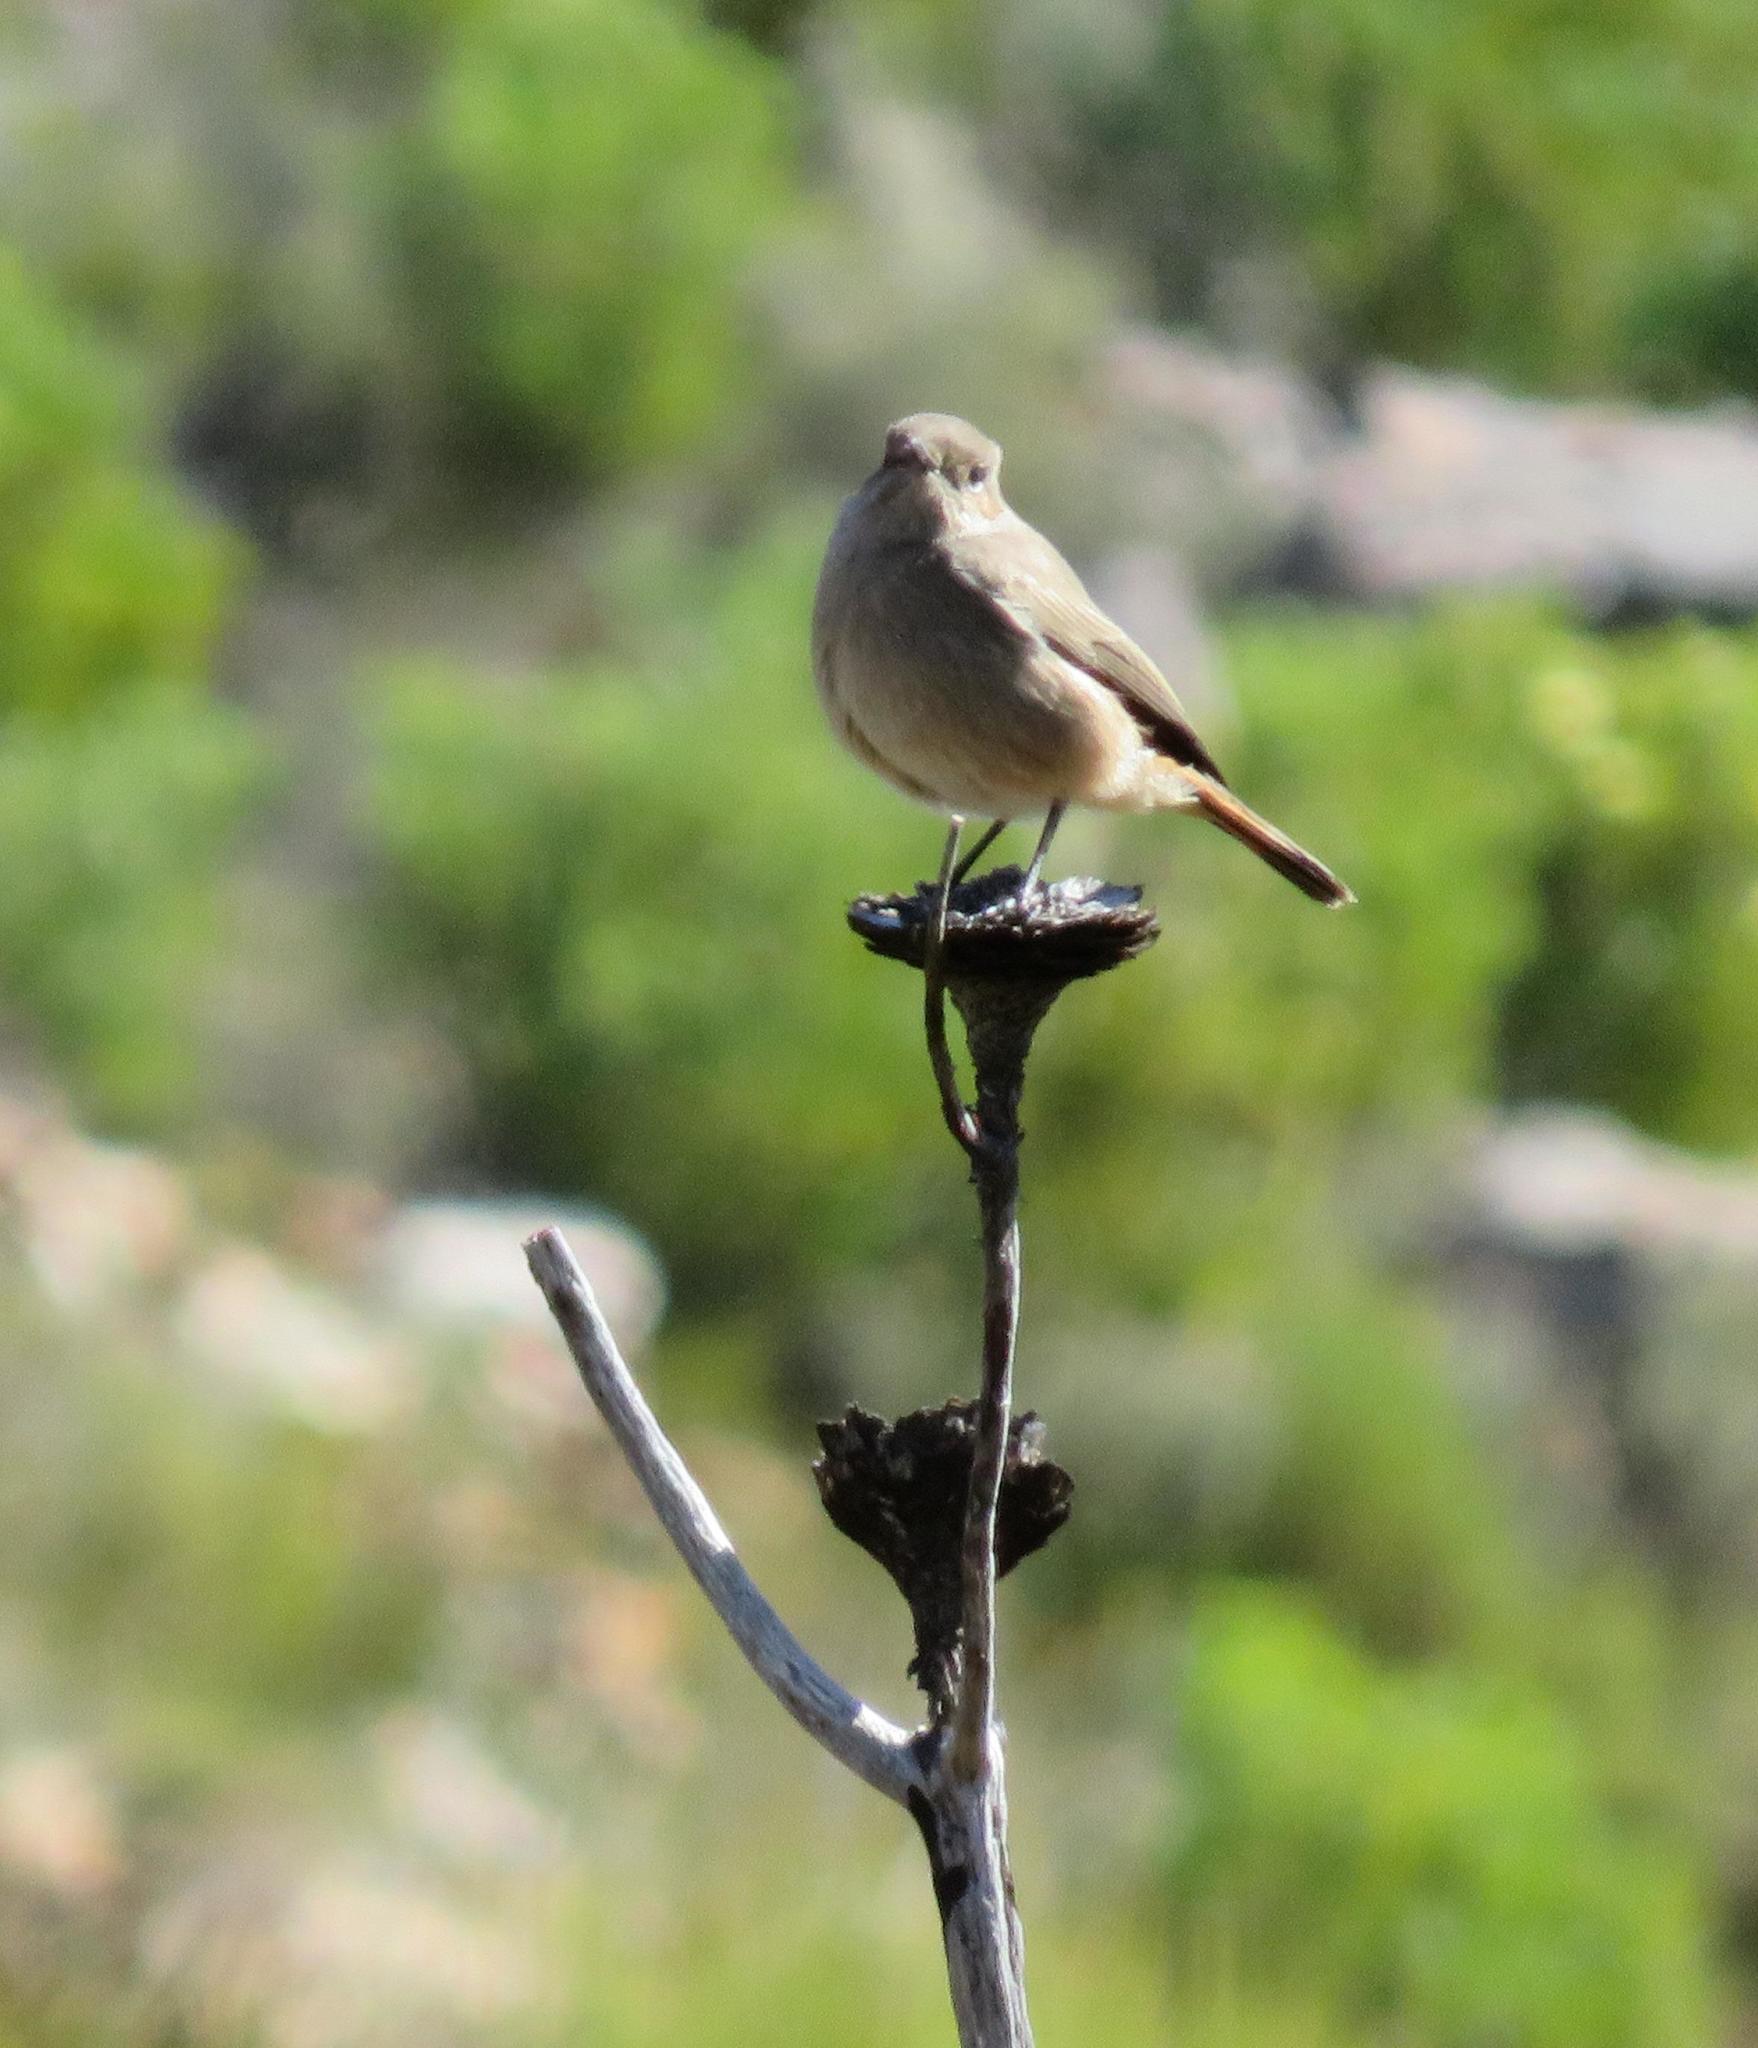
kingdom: Animalia
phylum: Chordata
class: Aves
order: Passeriformes
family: Muscicapidae
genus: Oenanthe
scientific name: Oenanthe familiaris
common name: Familiar chat
